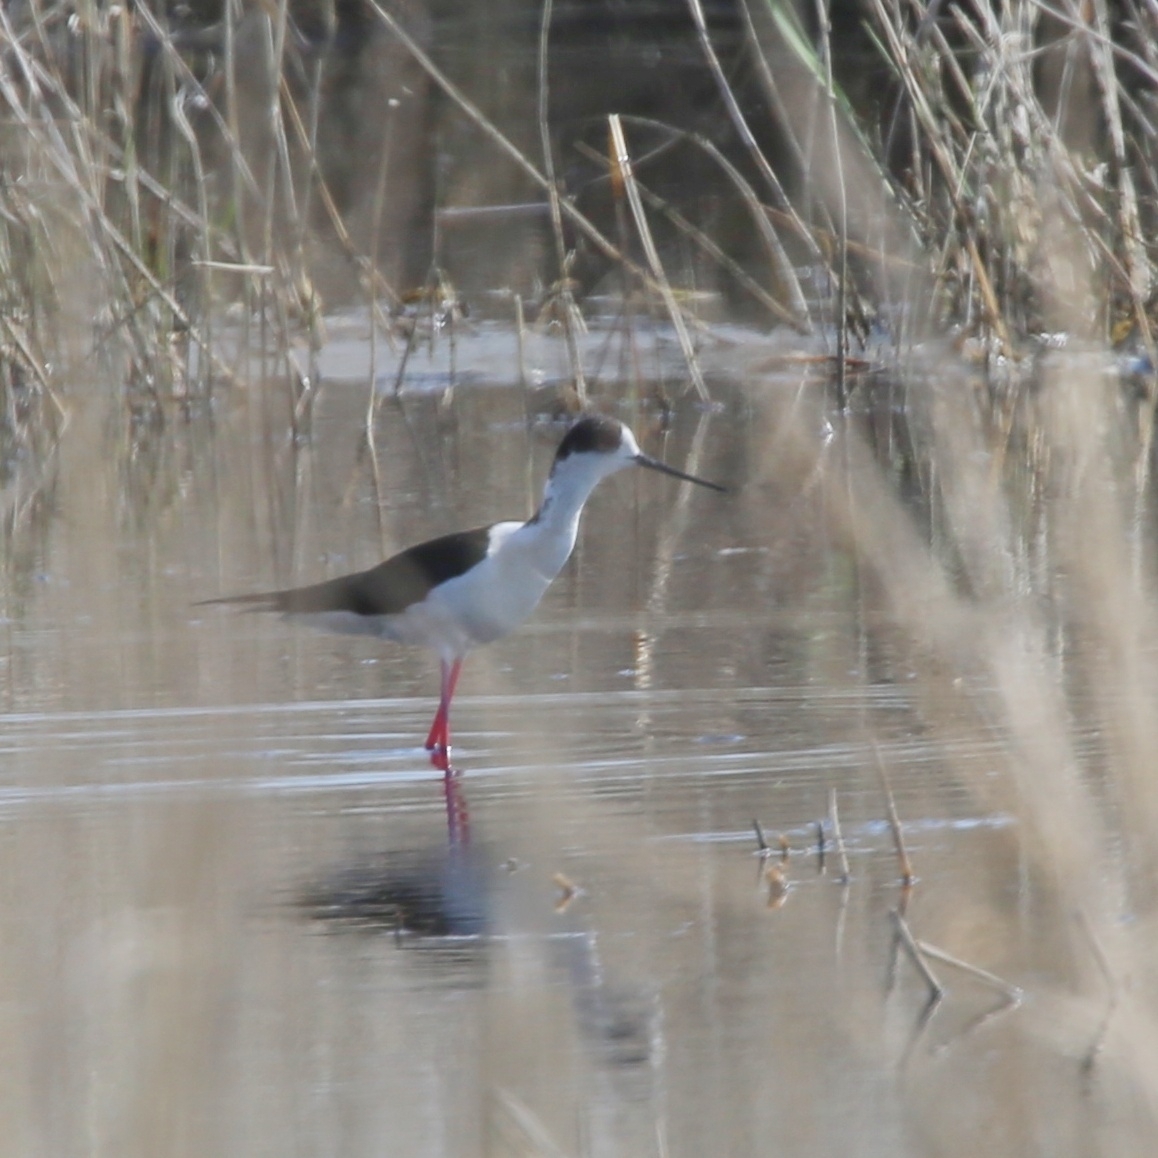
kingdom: Animalia
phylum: Chordata
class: Aves
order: Charadriiformes
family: Recurvirostridae
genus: Himantopus
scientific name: Himantopus himantopus
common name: Black-winged stilt
